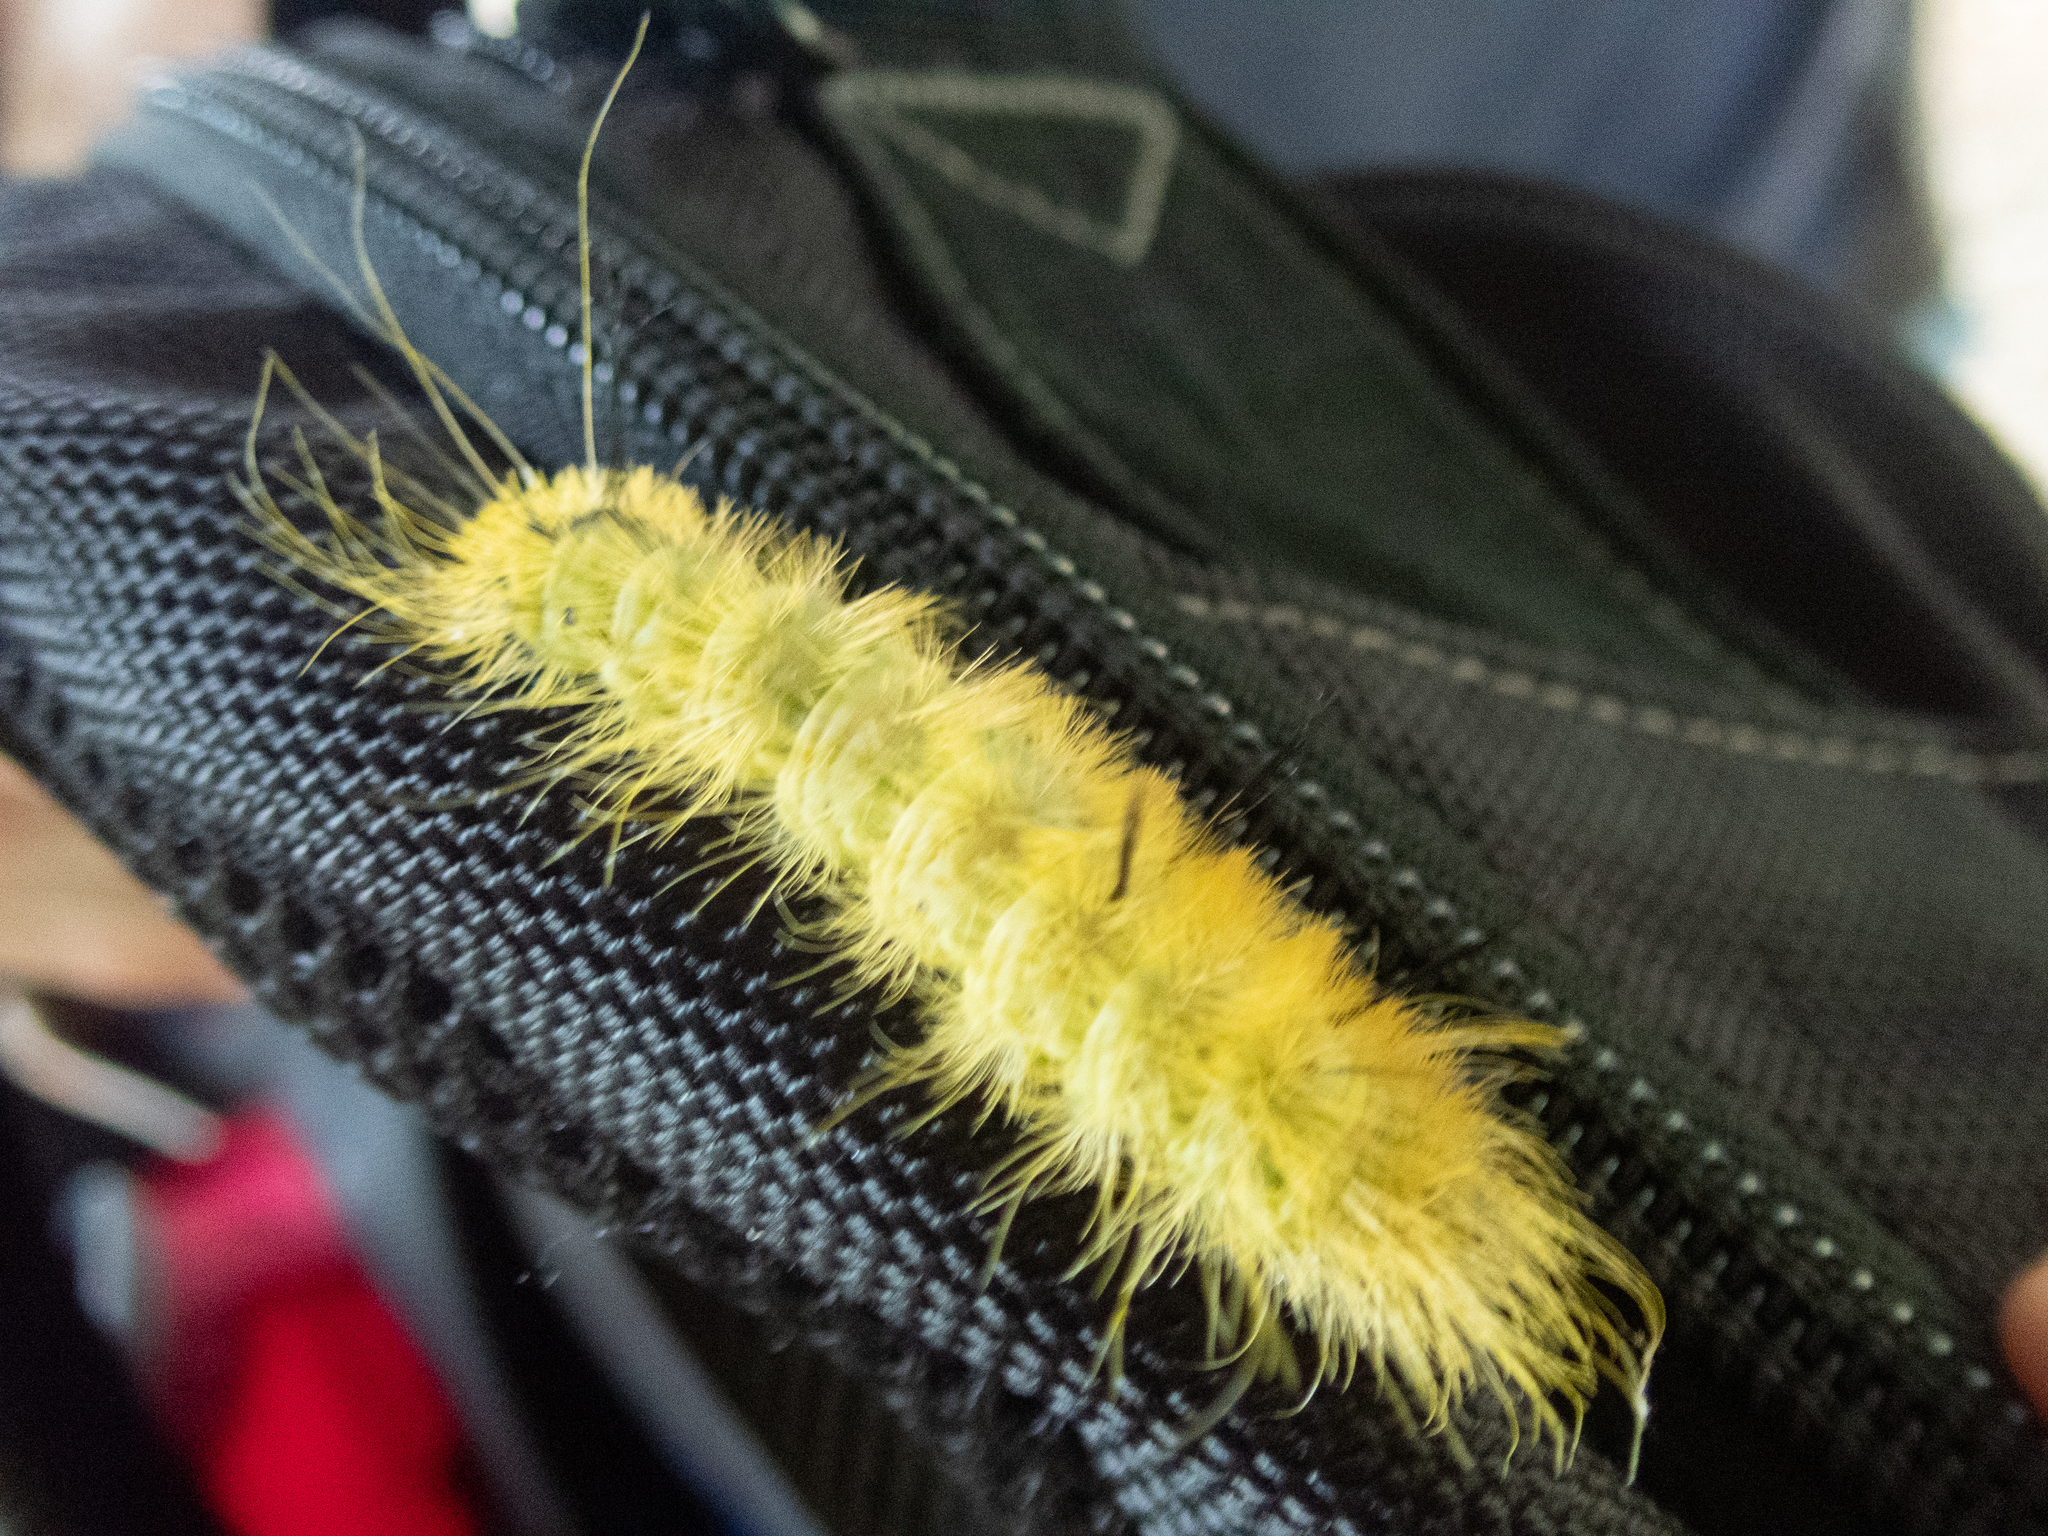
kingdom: Animalia
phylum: Arthropoda
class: Insecta
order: Lepidoptera
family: Noctuidae
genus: Acronicta
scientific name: Acronicta americana
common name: American dagger
